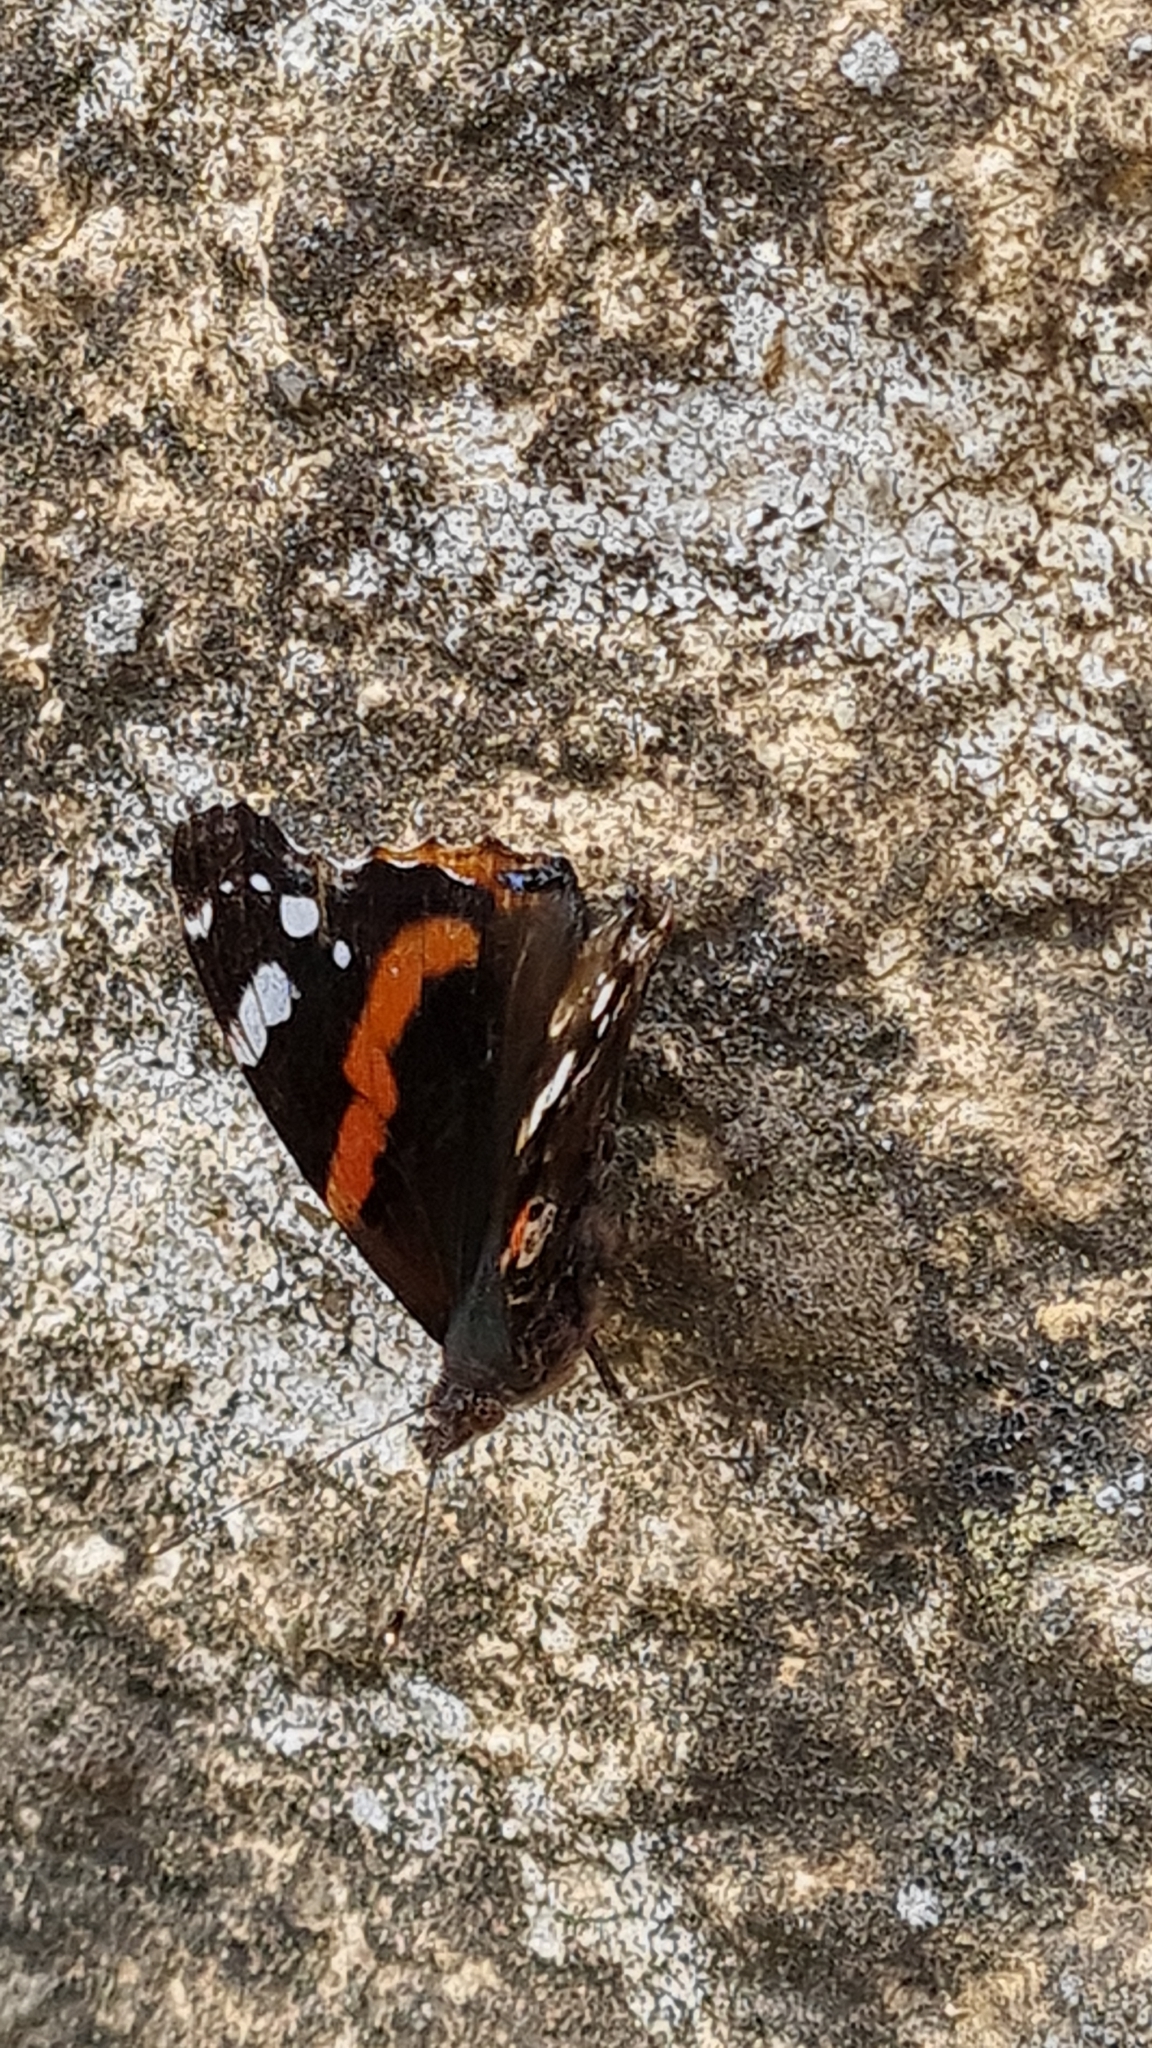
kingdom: Animalia
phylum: Arthropoda
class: Insecta
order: Lepidoptera
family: Nymphalidae
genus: Vanessa
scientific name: Vanessa atalanta
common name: Red admiral
